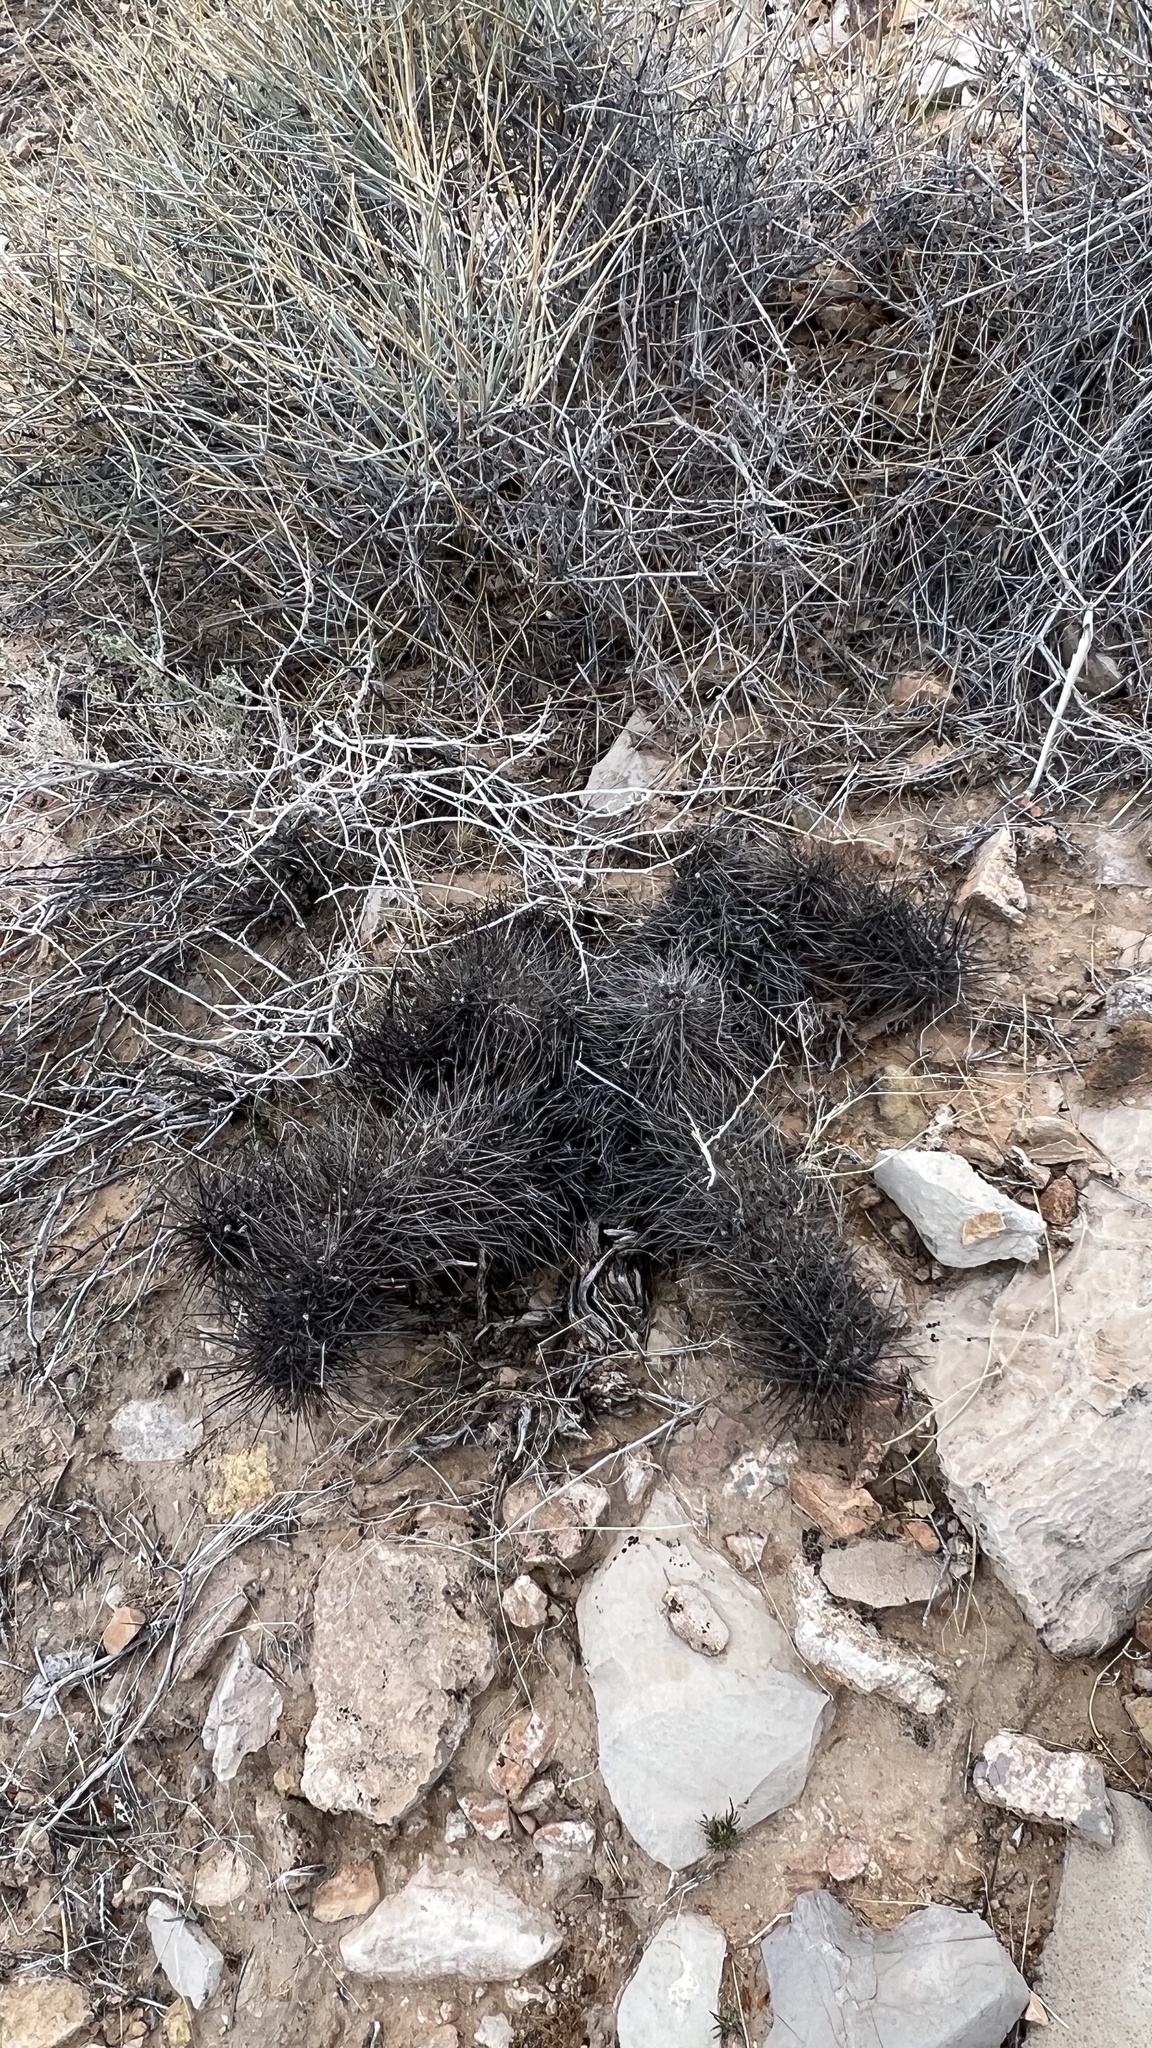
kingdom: Plantae
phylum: Tracheophyta
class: Magnoliopsida
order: Caryophyllales
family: Cactaceae
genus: Echinocereus
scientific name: Echinocereus engelmannii
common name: Engelmann's hedgehog cactus
